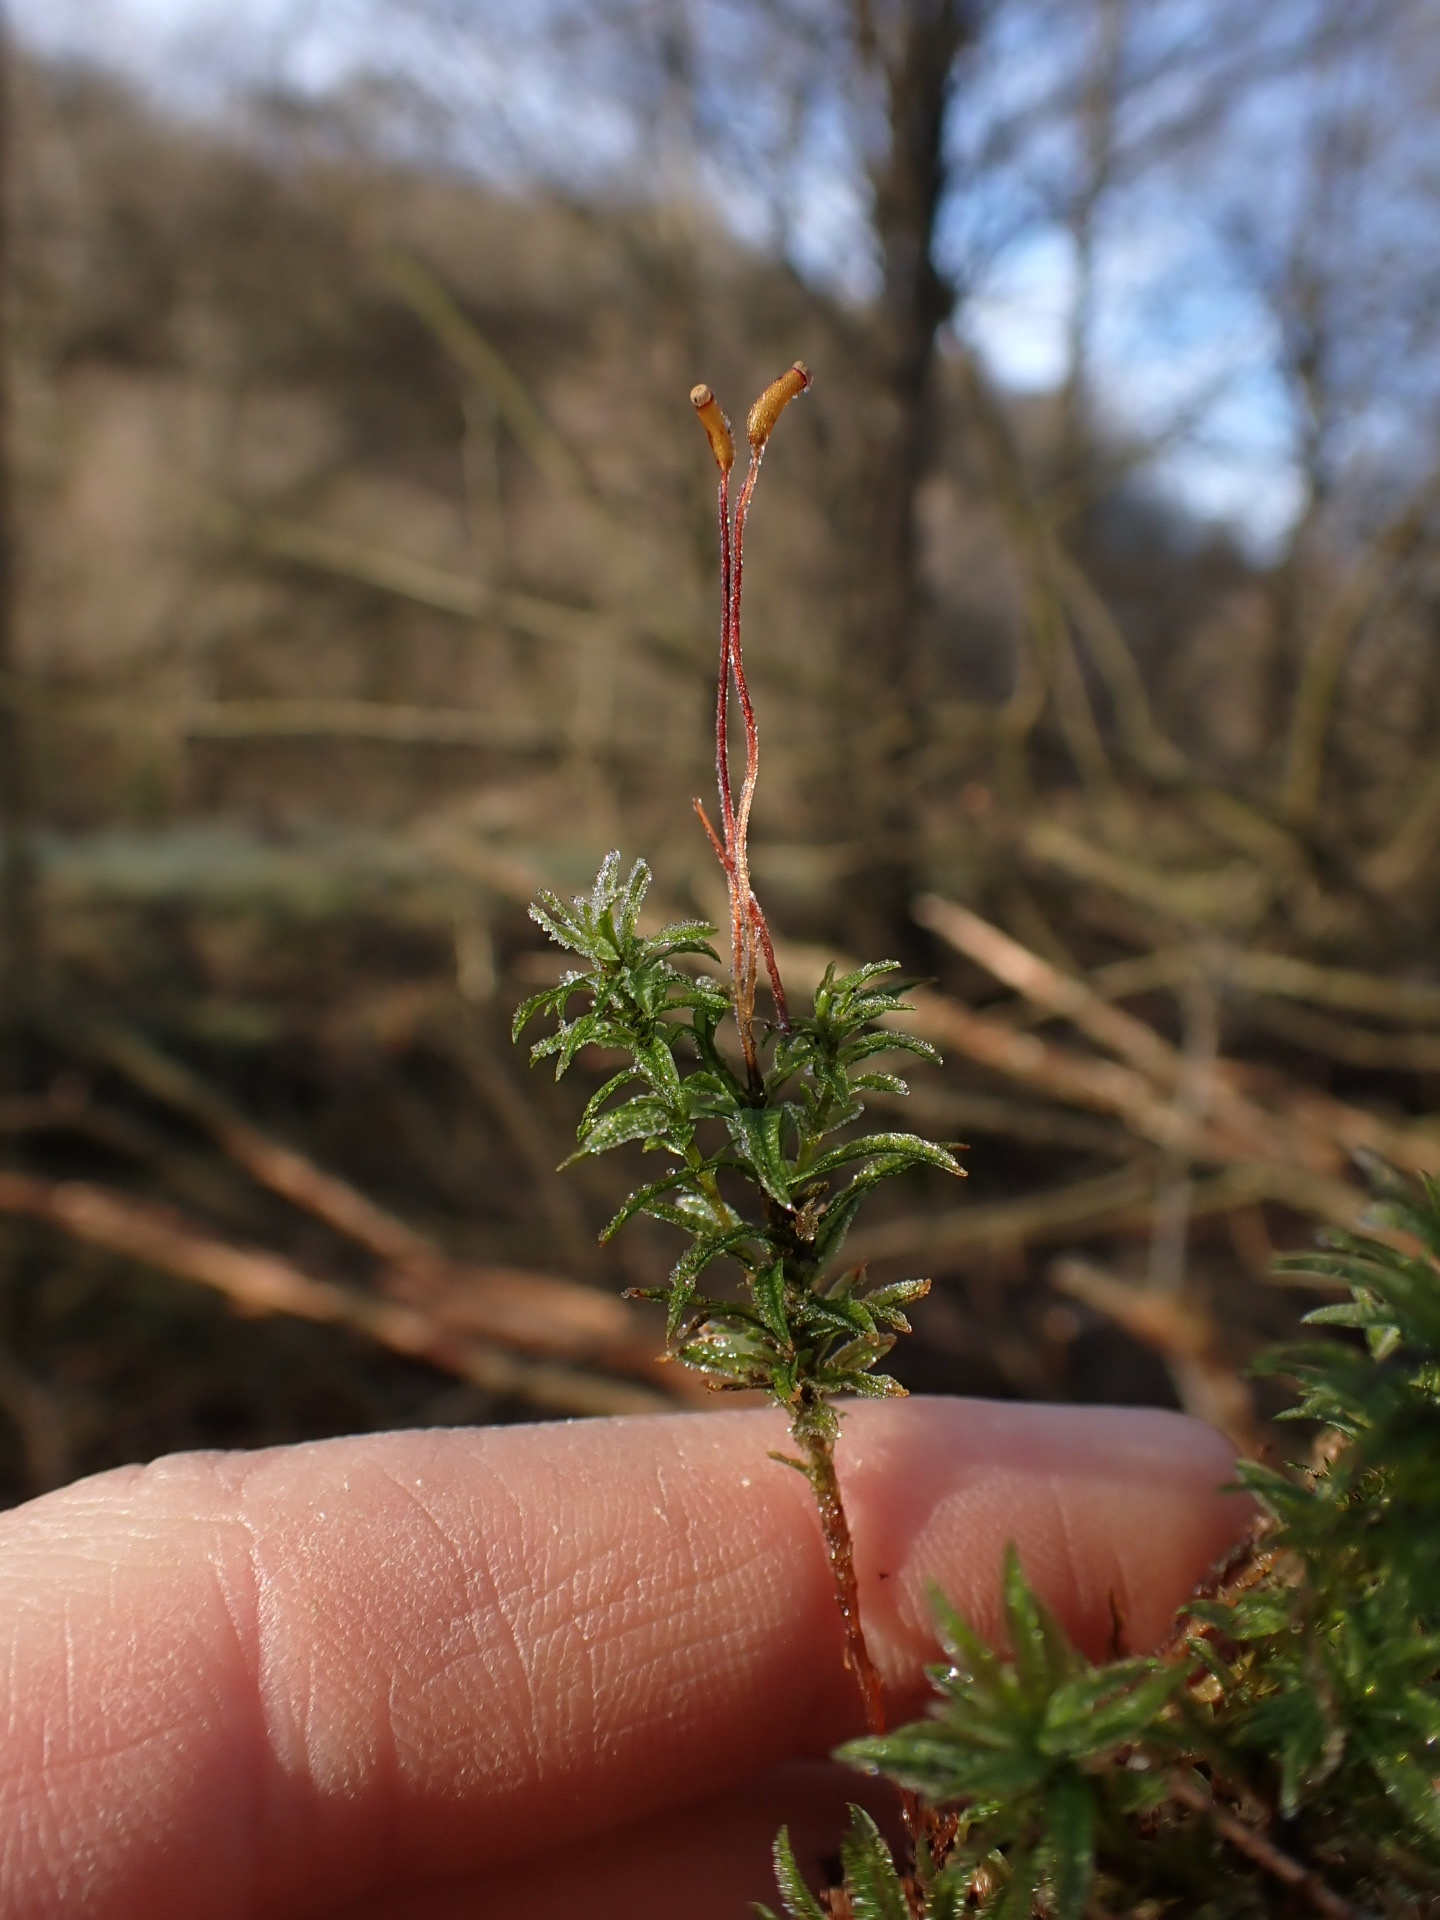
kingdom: Plantae
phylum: Bryophyta
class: Polytrichopsida
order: Polytrichales
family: Polytrichaceae
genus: Atrichum
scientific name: Atrichum undulatum
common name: Common smoothcap
